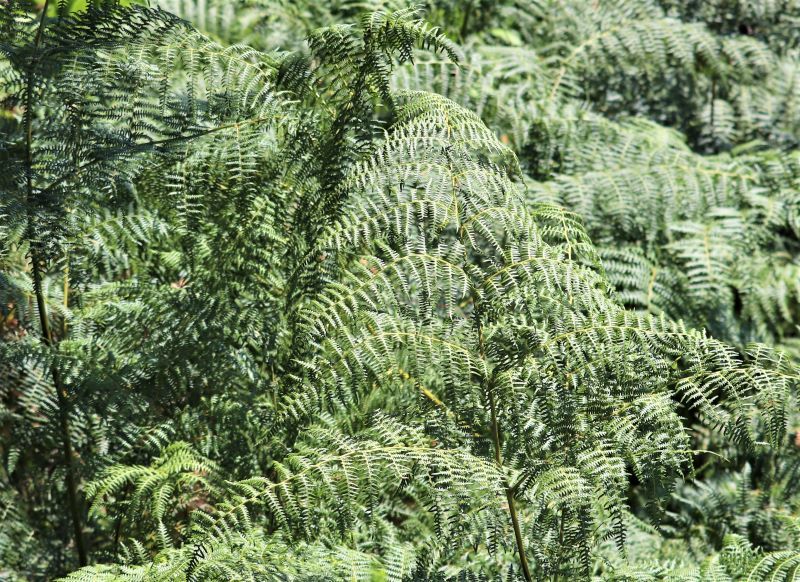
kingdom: Plantae
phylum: Tracheophyta
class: Polypodiopsida
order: Polypodiales
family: Dennstaedtiaceae
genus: Pteridium
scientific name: Pteridium aquilinum
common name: Bracken
